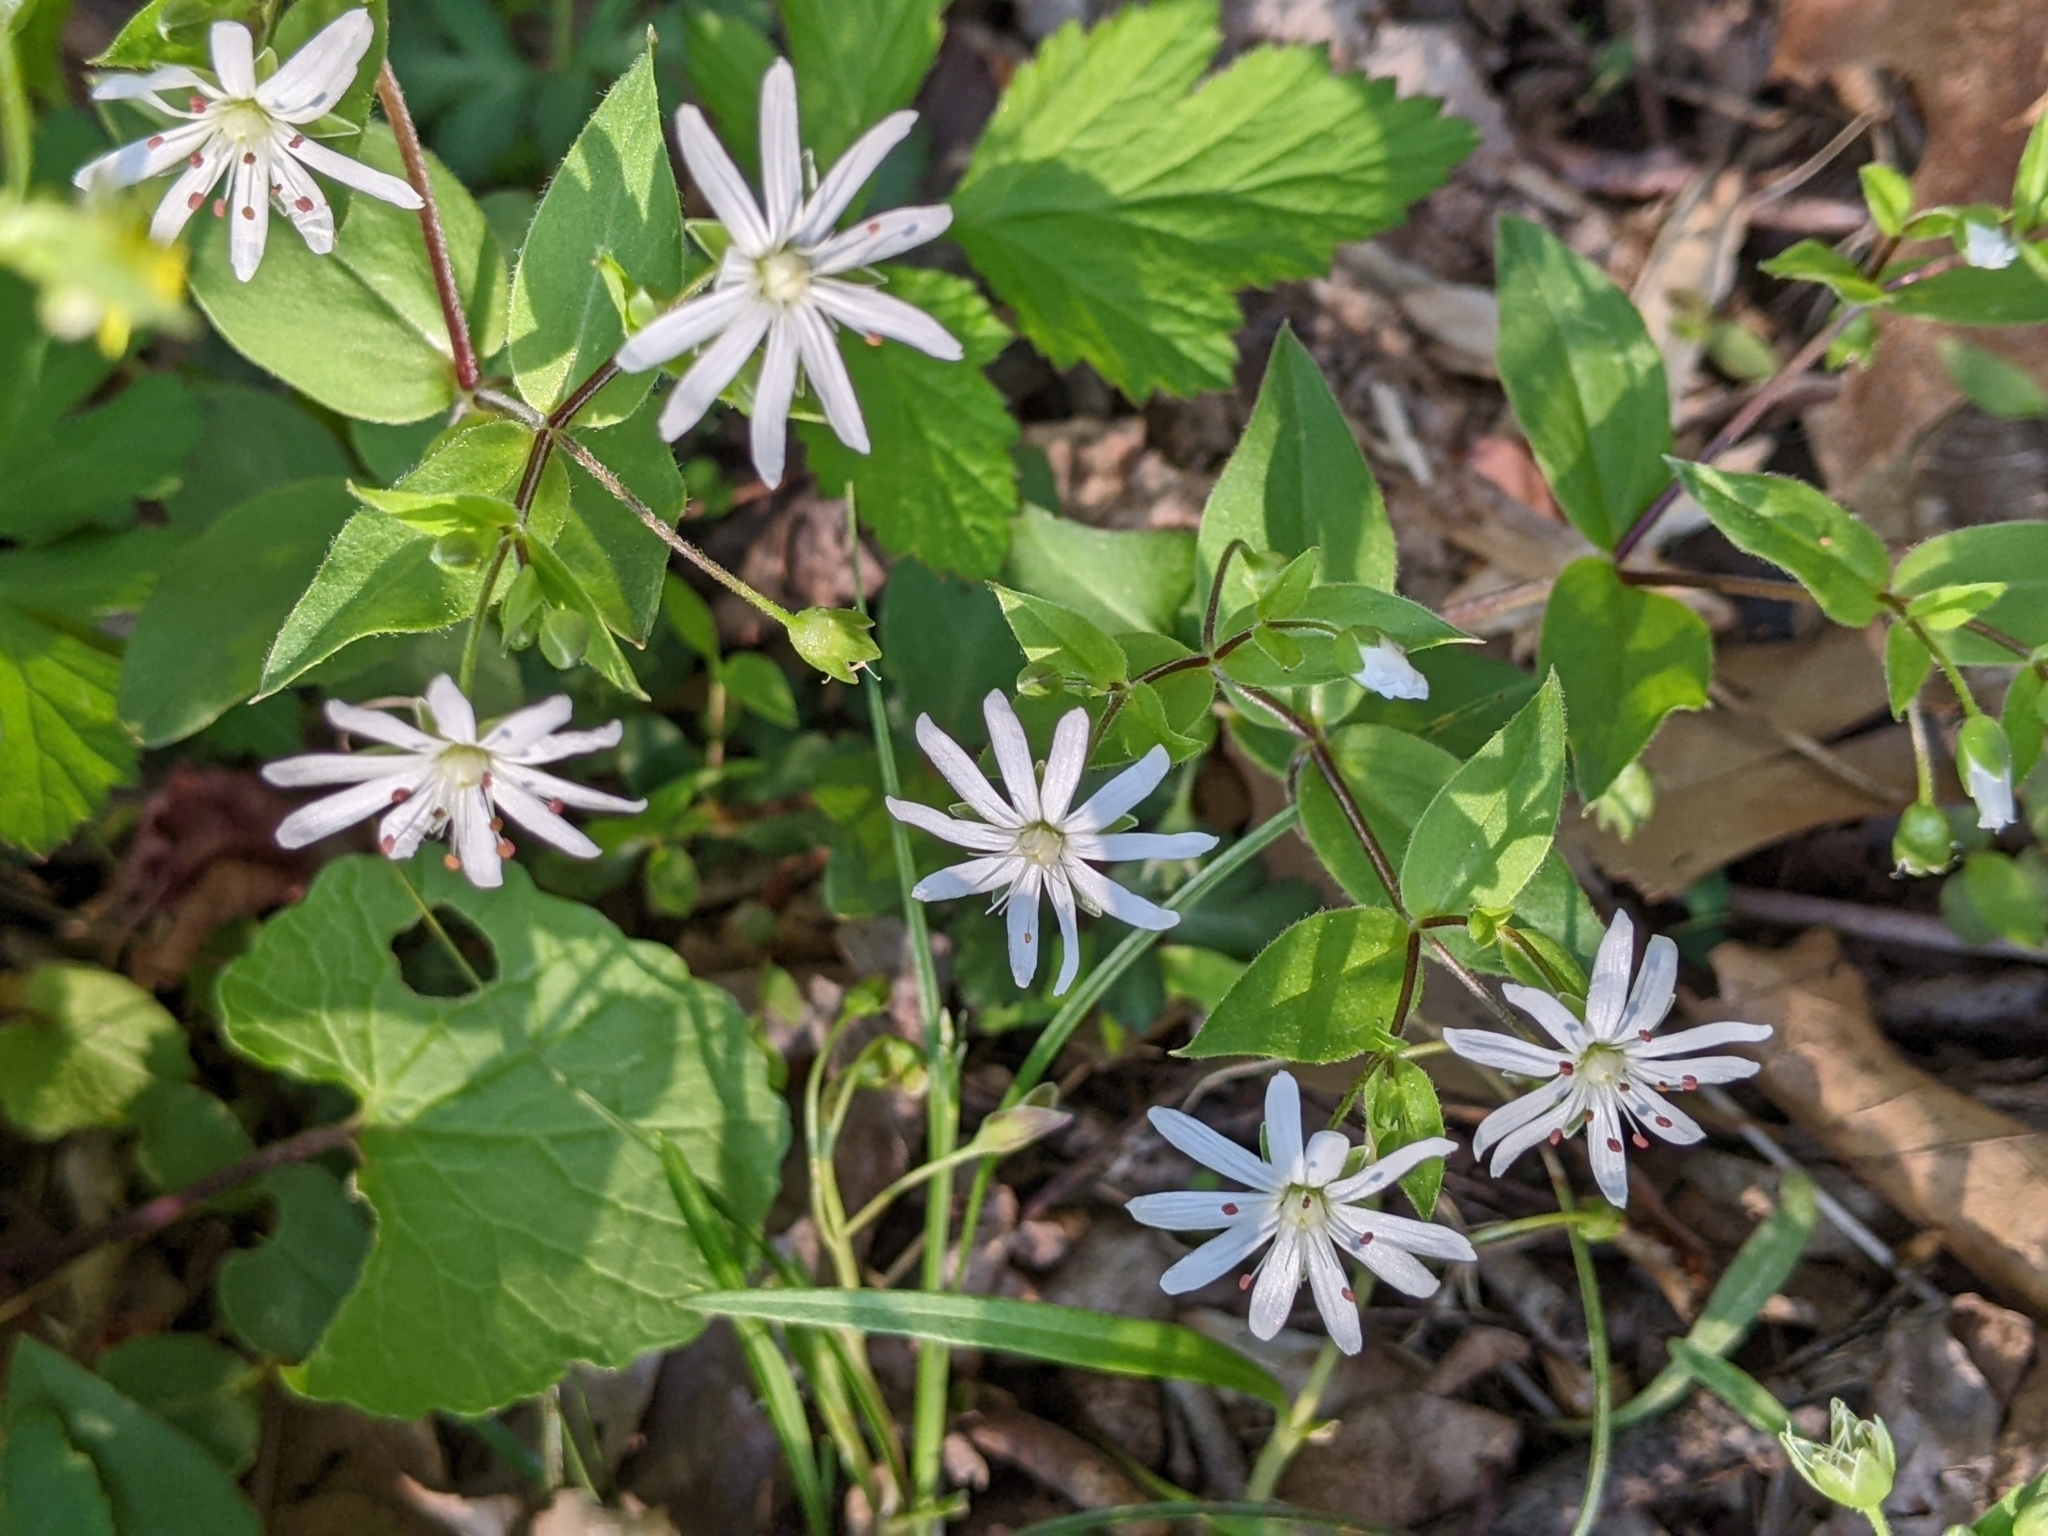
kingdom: Plantae
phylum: Tracheophyta
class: Magnoliopsida
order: Caryophyllales
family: Caryophyllaceae
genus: Stellaria
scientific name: Stellaria pubera
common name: Star chickweed
